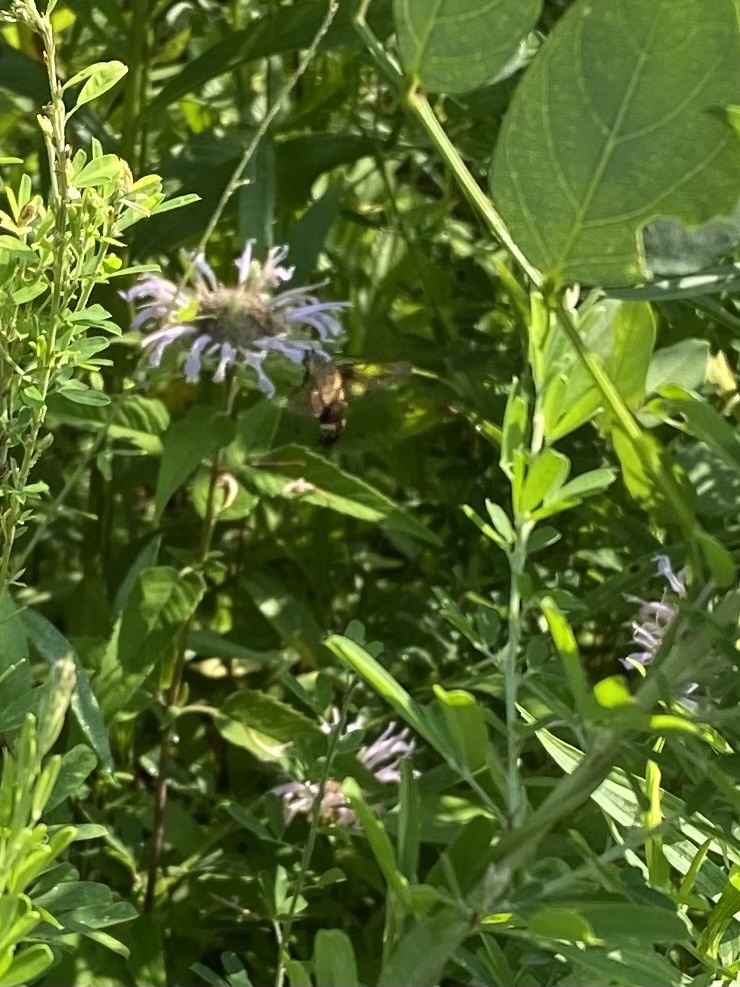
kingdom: Animalia
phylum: Arthropoda
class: Insecta
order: Lepidoptera
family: Sphingidae
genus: Hemaris
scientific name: Hemaris diffinis
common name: Bumblebee moth
